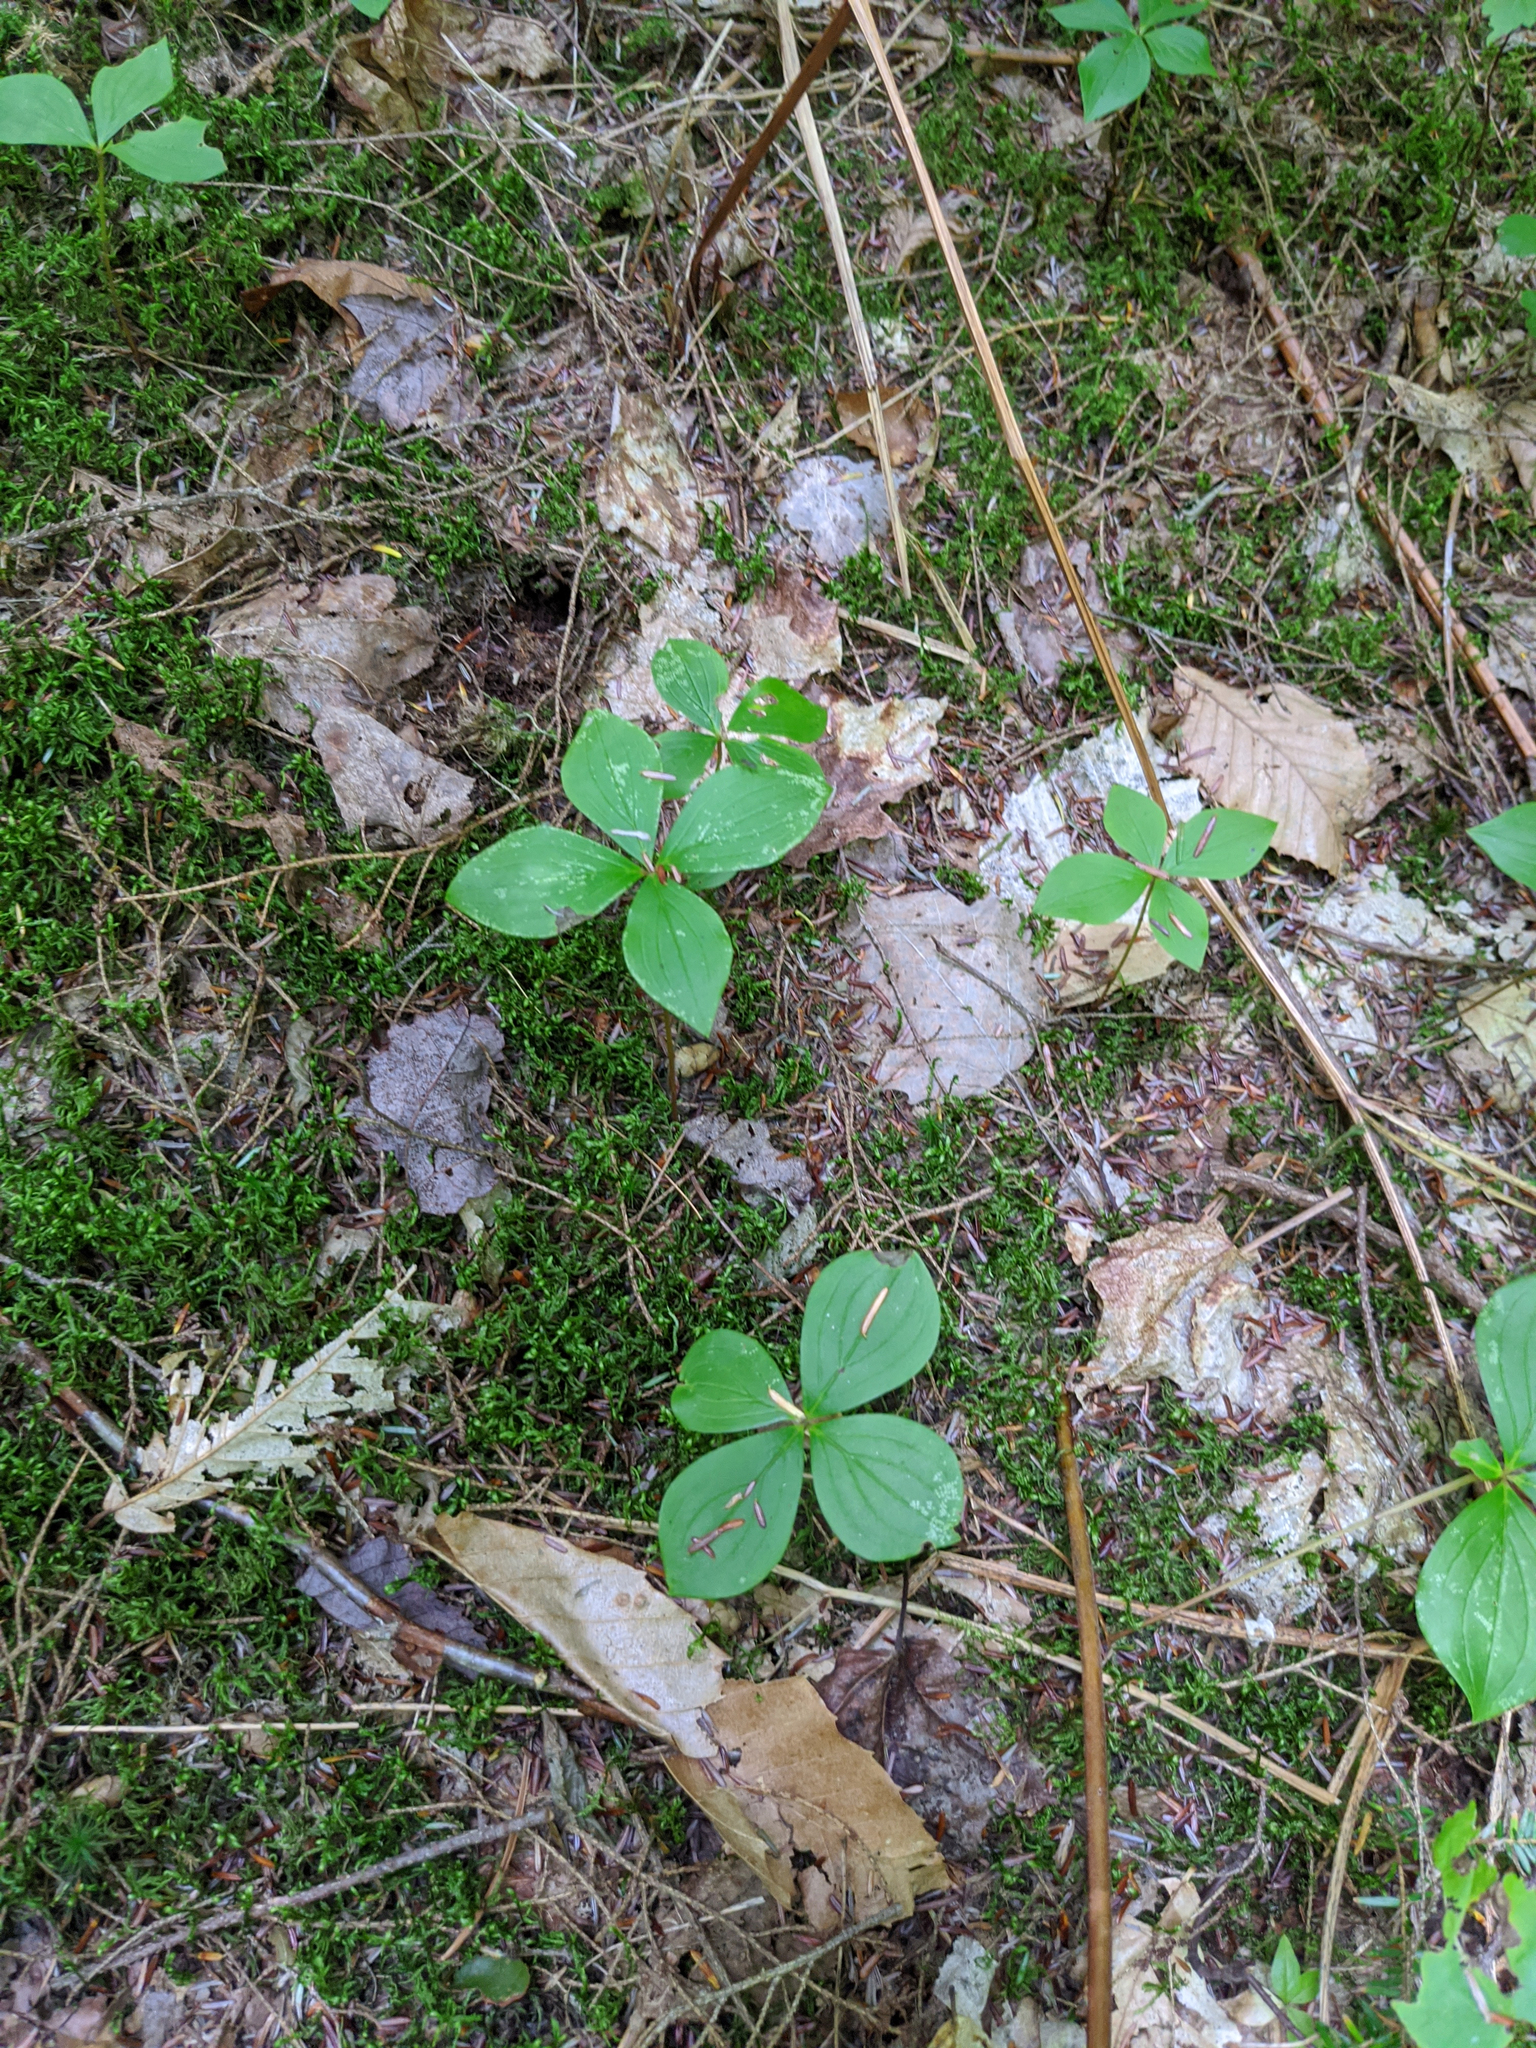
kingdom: Plantae
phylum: Tracheophyta
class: Magnoliopsida
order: Cornales
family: Cornaceae
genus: Cornus
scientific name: Cornus canadensis
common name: Creeping dogwood
